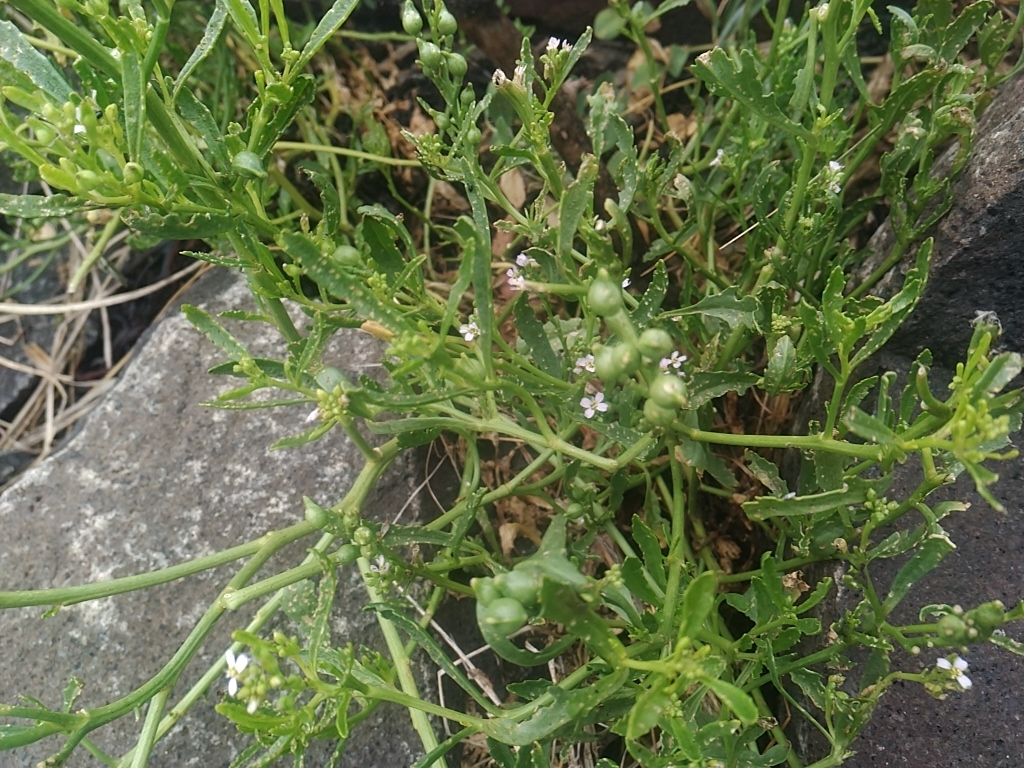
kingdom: Plantae
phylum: Tracheophyta
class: Magnoliopsida
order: Brassicales
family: Brassicaceae
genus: Cakile
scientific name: Cakile edentula
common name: American sea rocket
